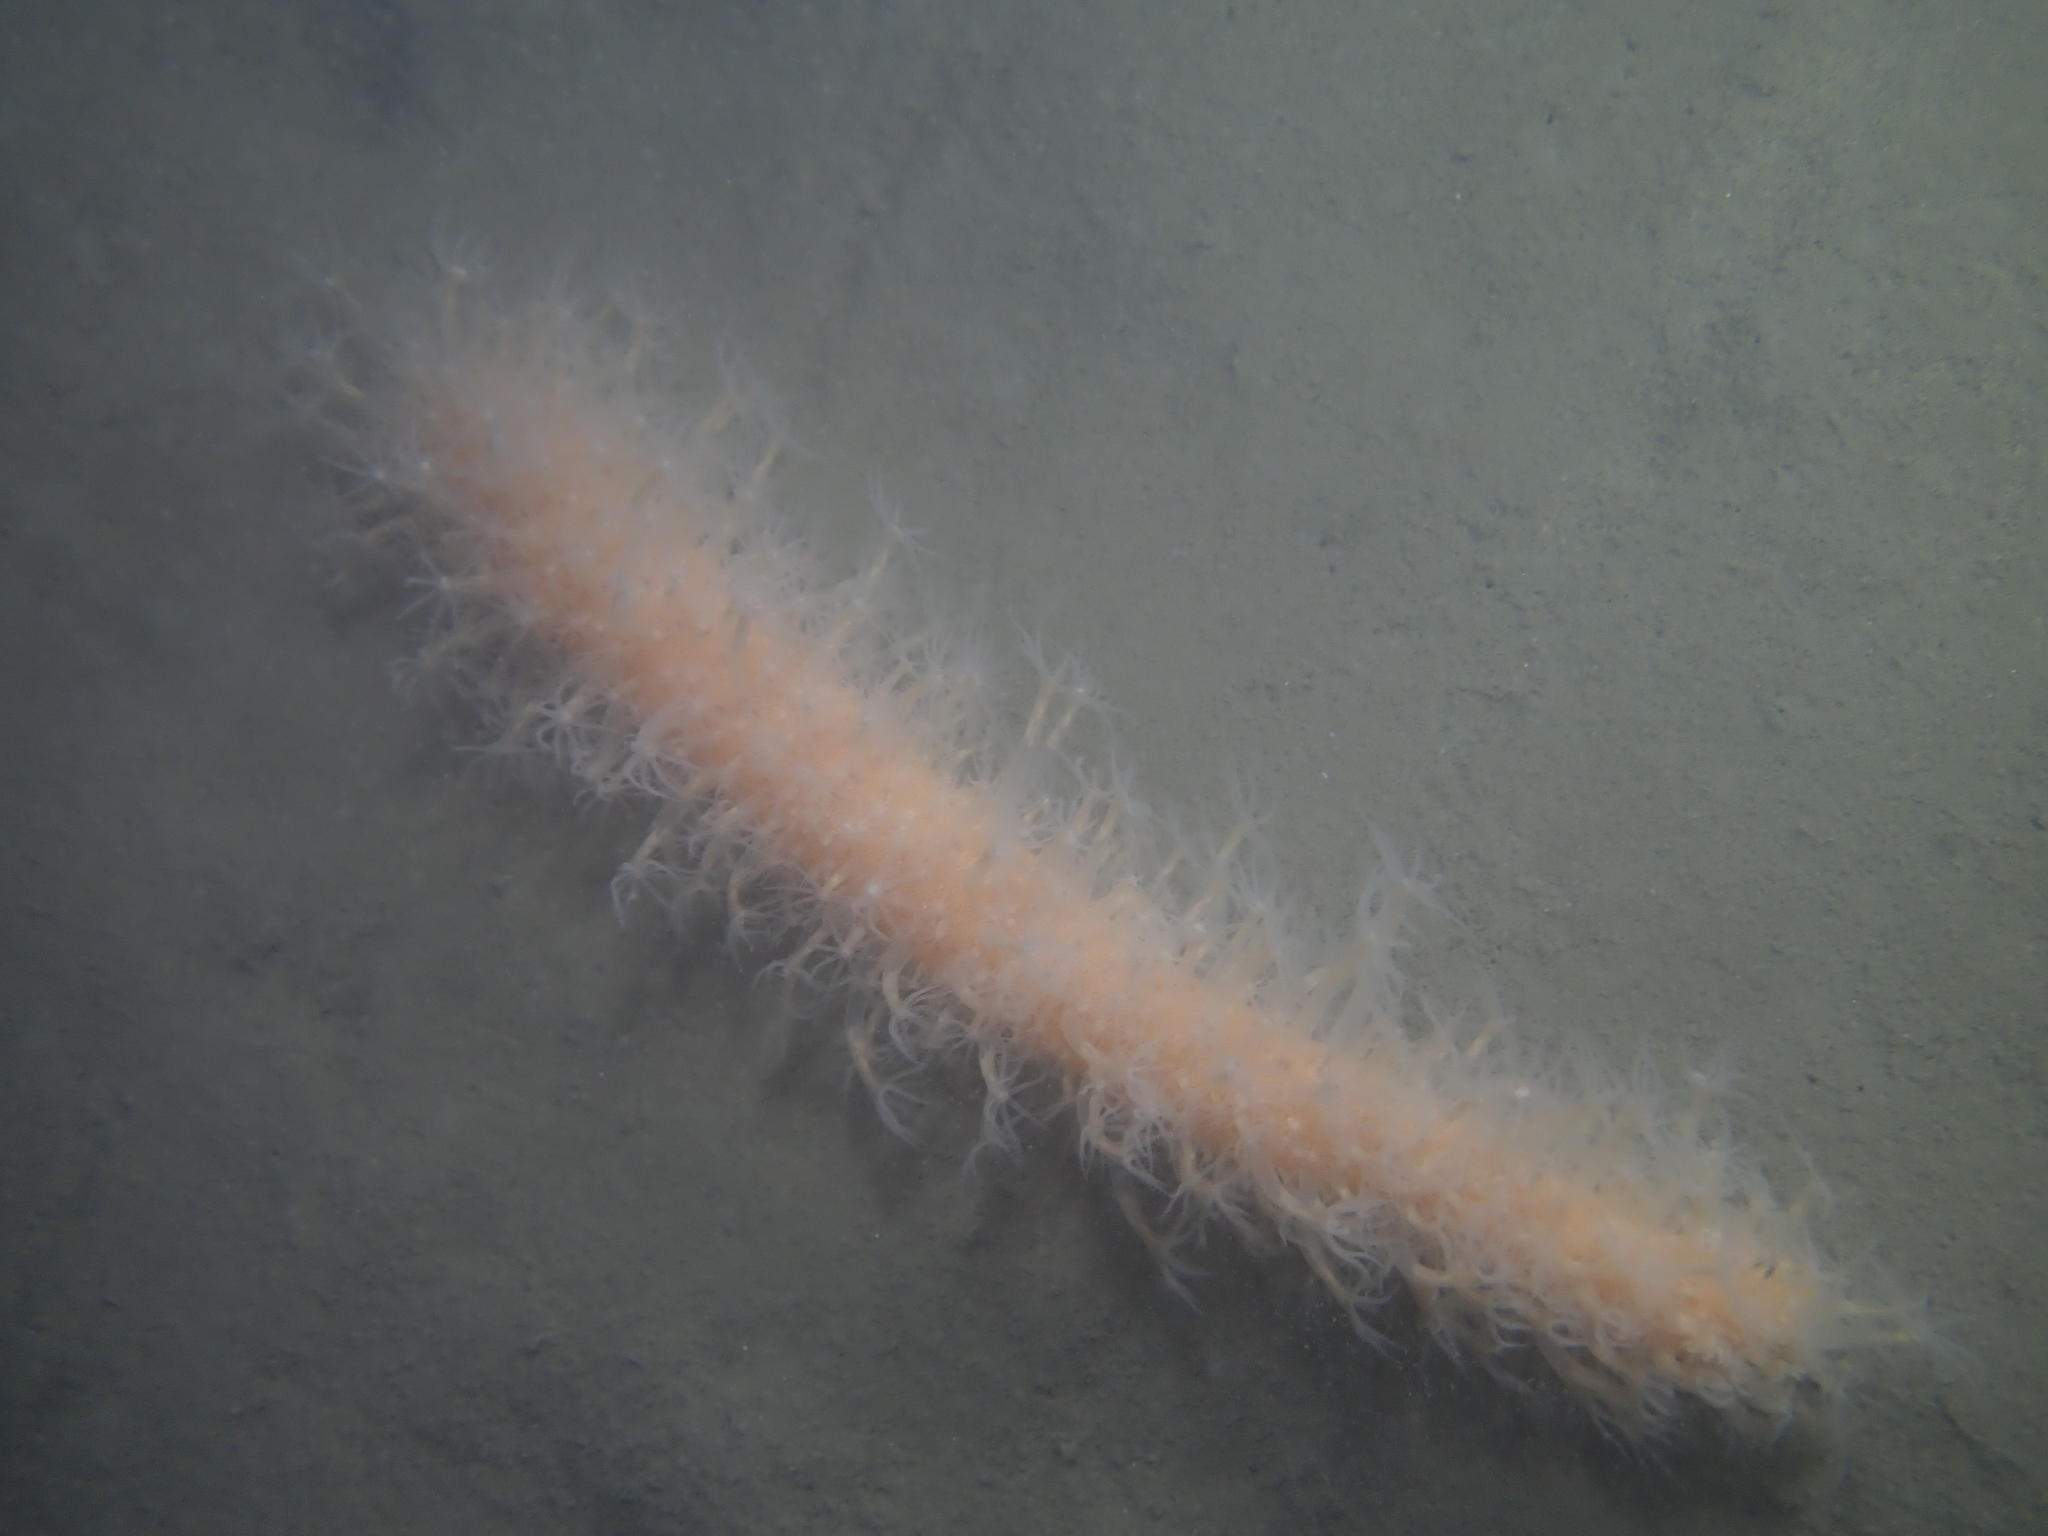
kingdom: Animalia
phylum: Cnidaria
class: Anthozoa
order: Scleralcyonacea
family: Veretillidae
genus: Veretillum
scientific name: Veretillum cynomorium
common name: Finger-shaped sea-pen
